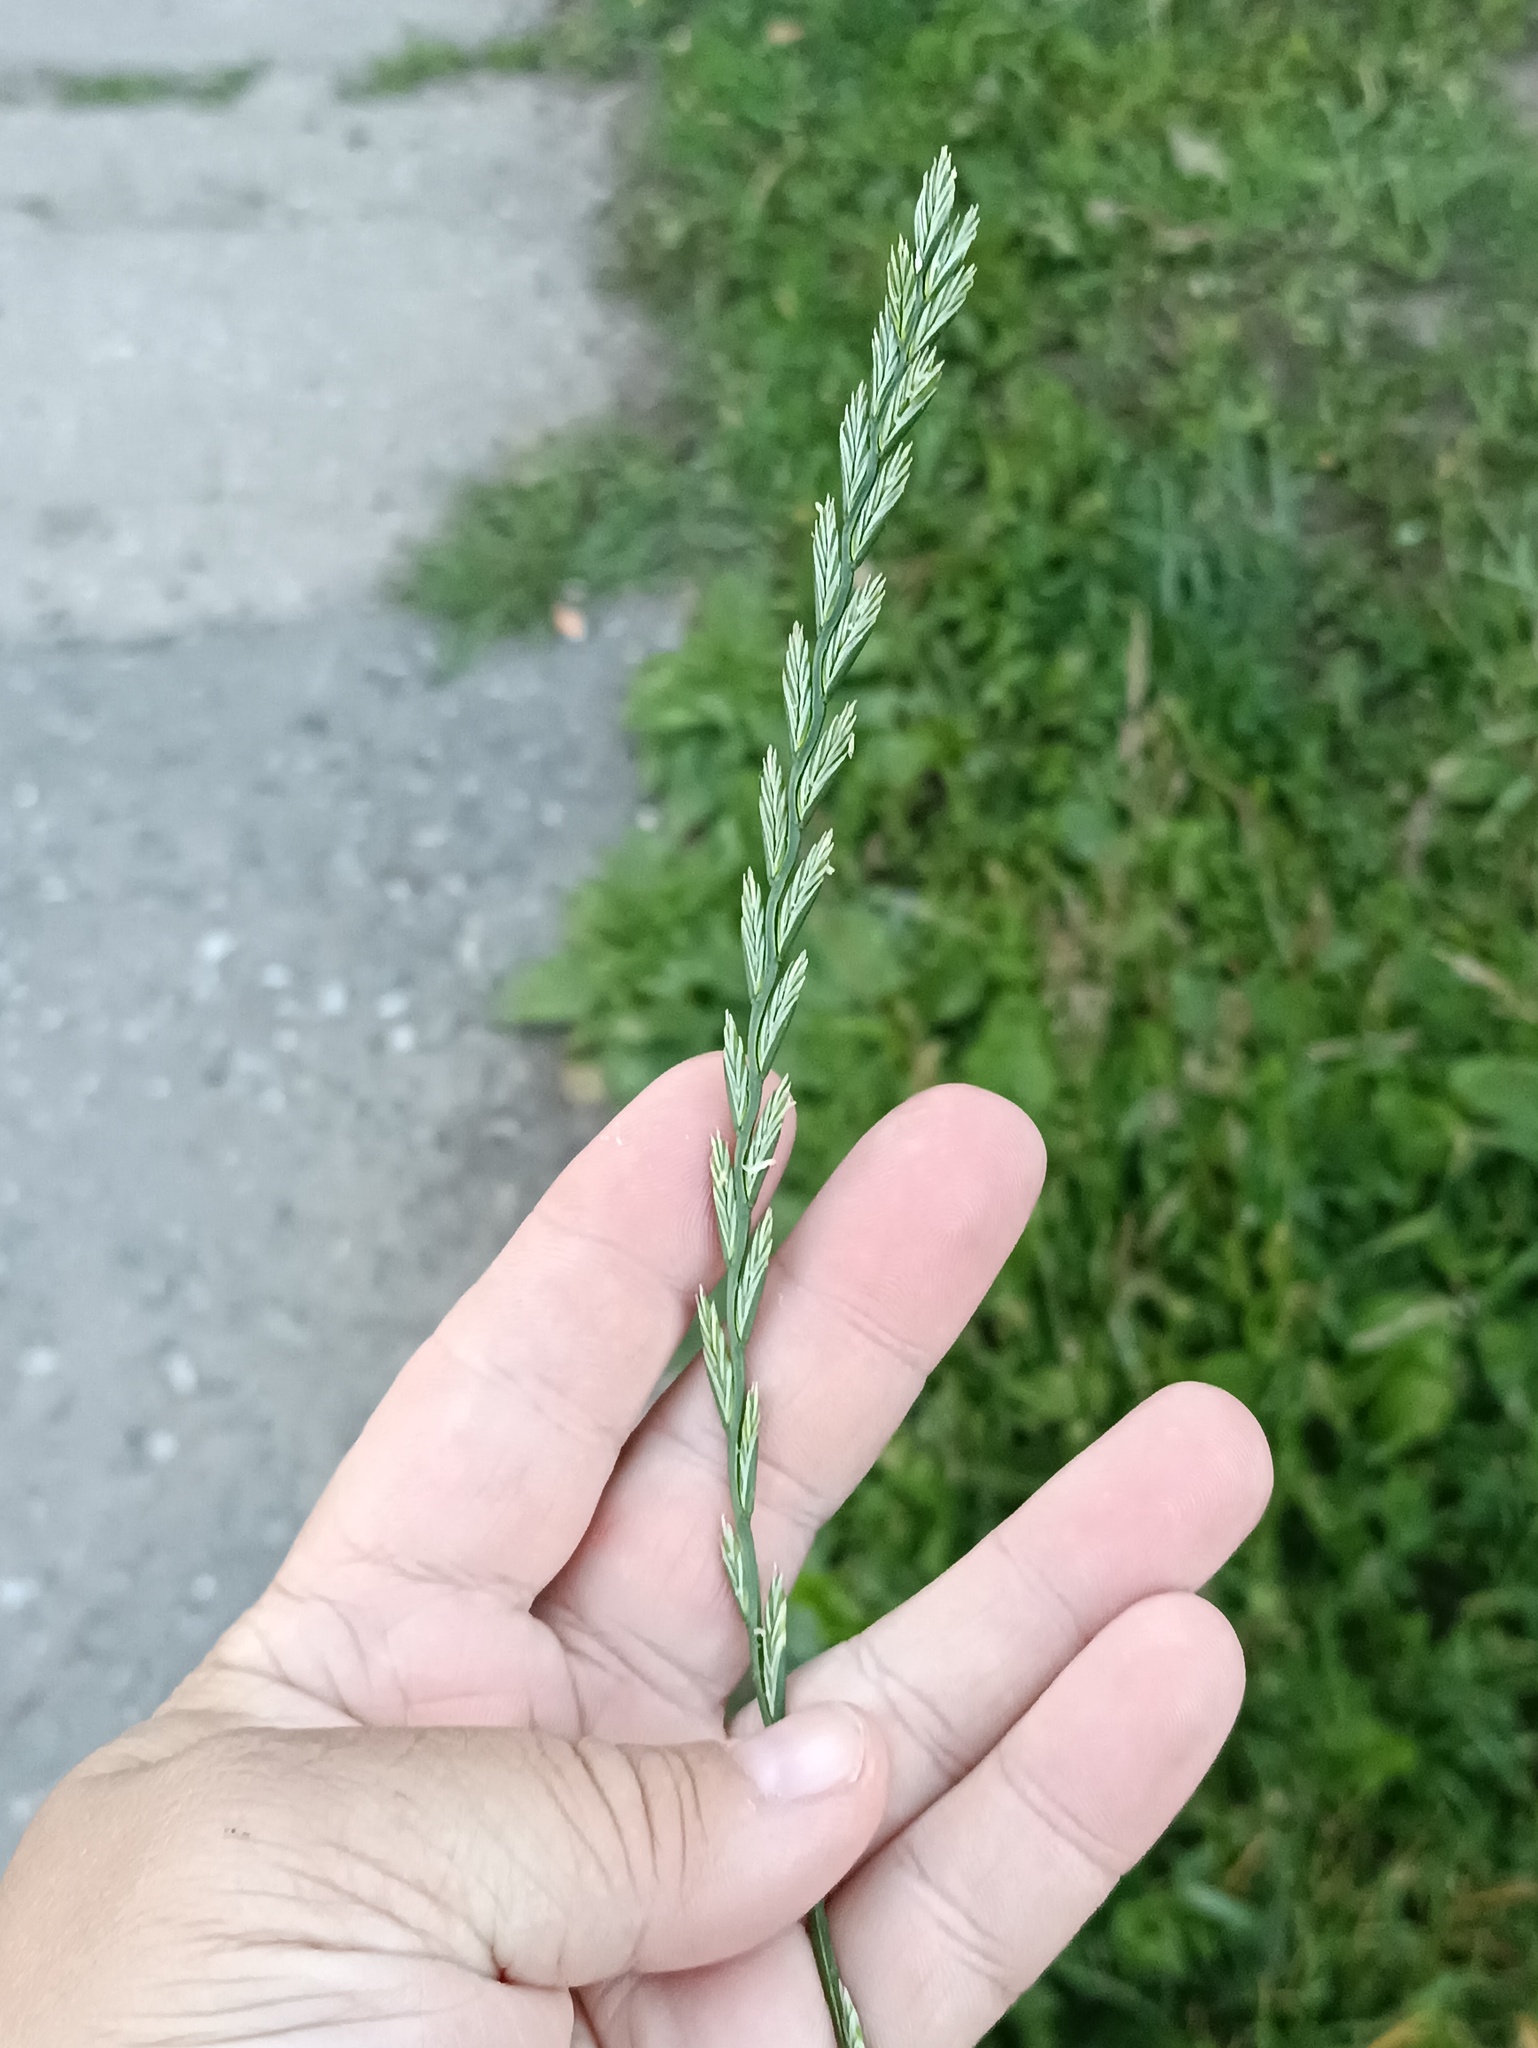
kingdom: Plantae
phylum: Tracheophyta
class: Liliopsida
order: Poales
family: Poaceae
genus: Lolium
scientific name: Lolium perenne
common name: Perennial ryegrass
